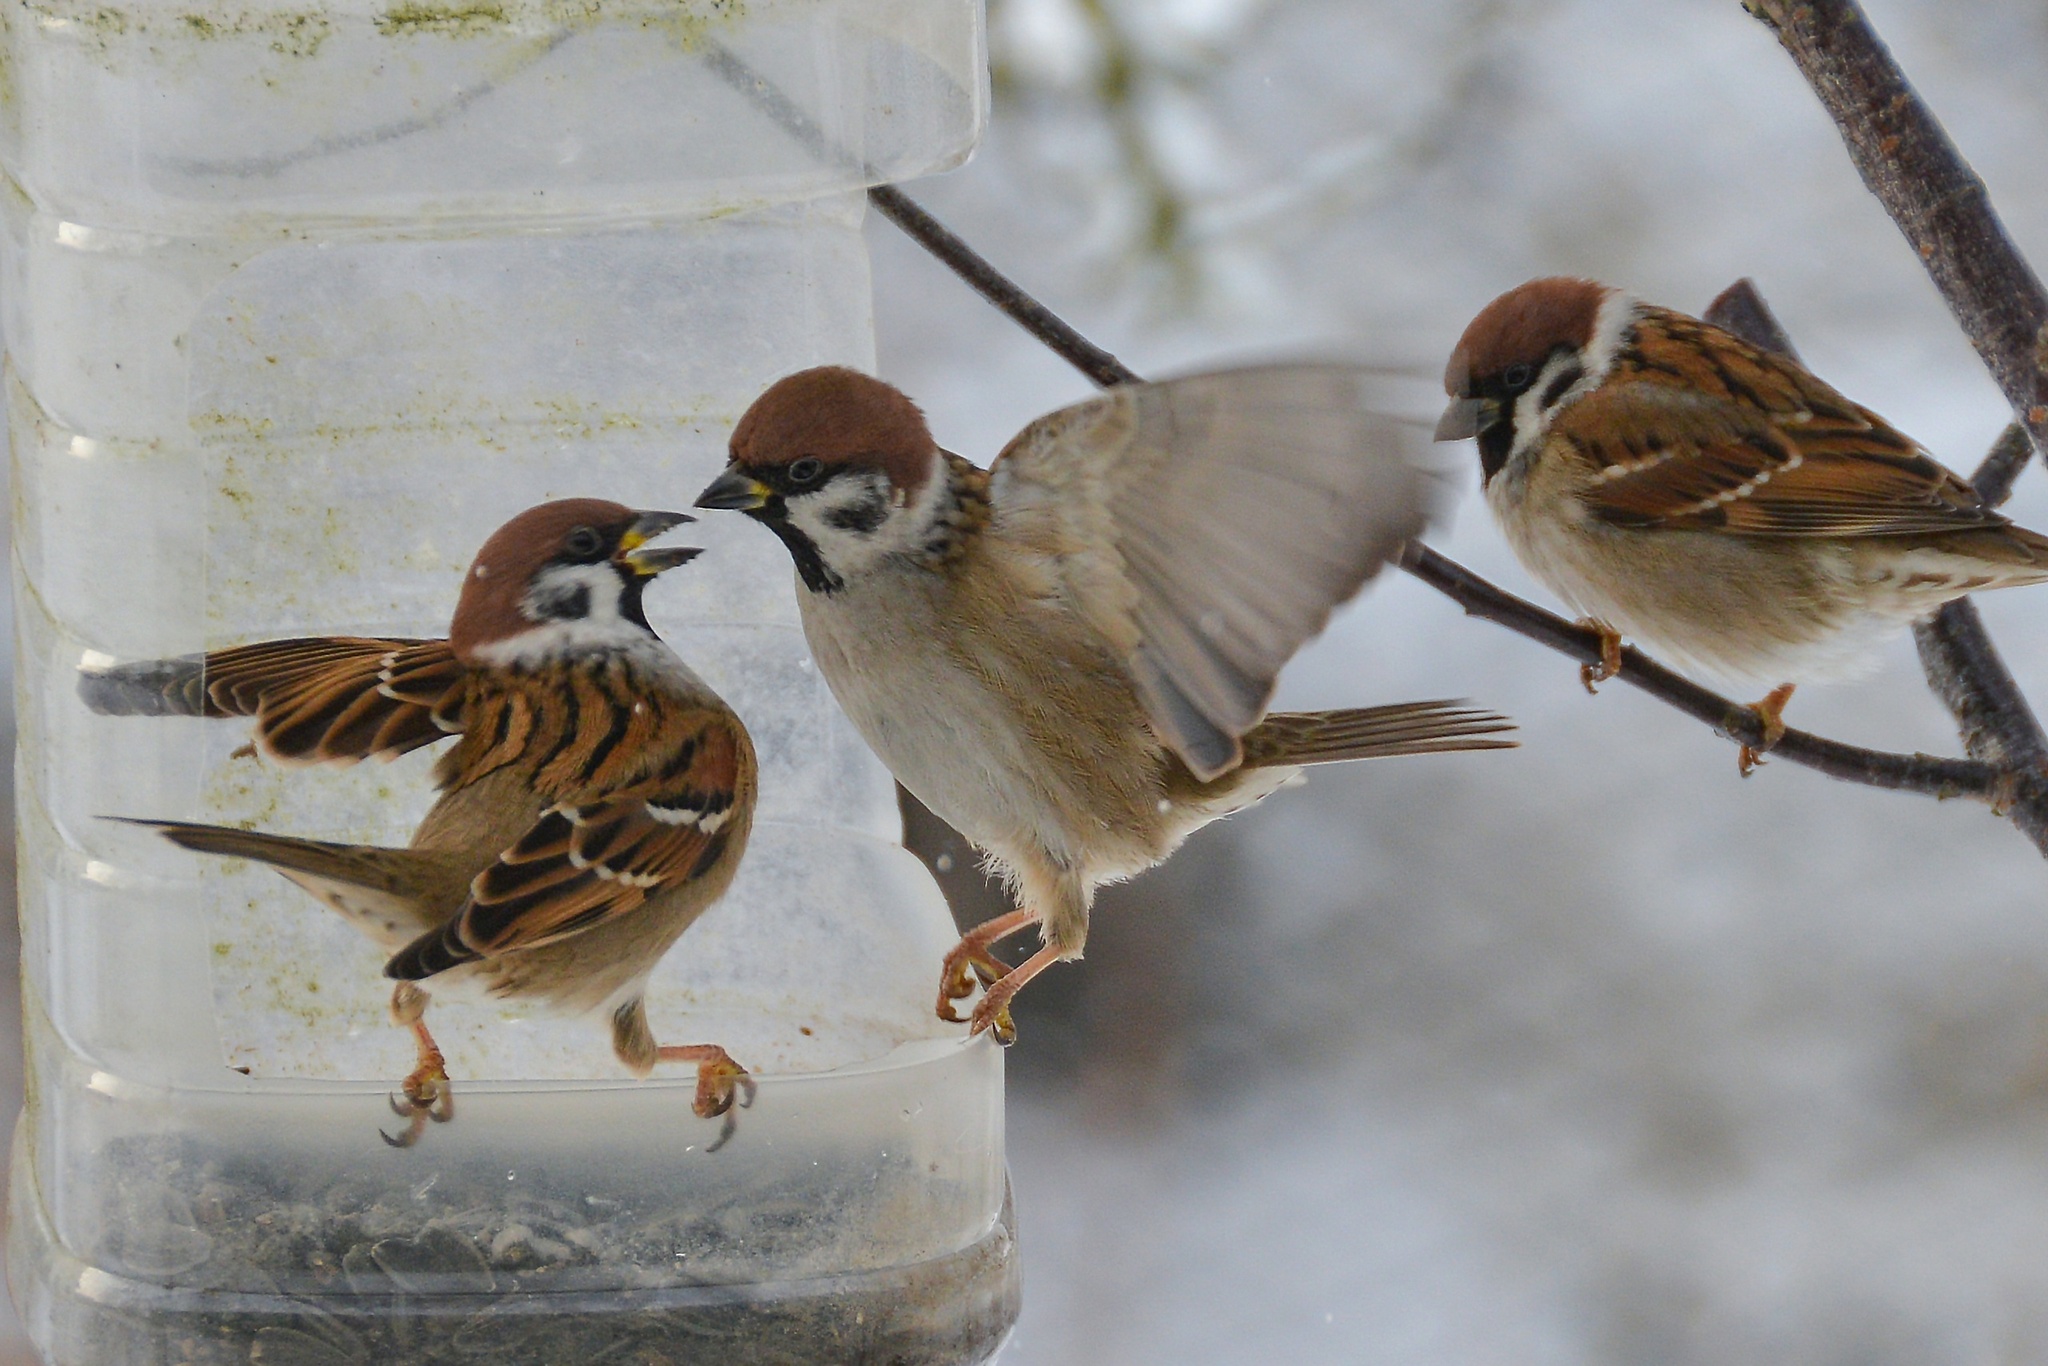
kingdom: Animalia
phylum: Chordata
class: Aves
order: Passeriformes
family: Passeridae
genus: Passer
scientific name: Passer montanus
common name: Eurasian tree sparrow
